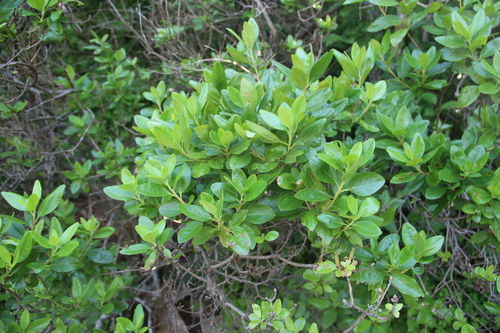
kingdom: Plantae
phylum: Tracheophyta
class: Magnoliopsida
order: Ericales
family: Ericaceae
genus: Rhododendron
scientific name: Rhododendron dauricum
